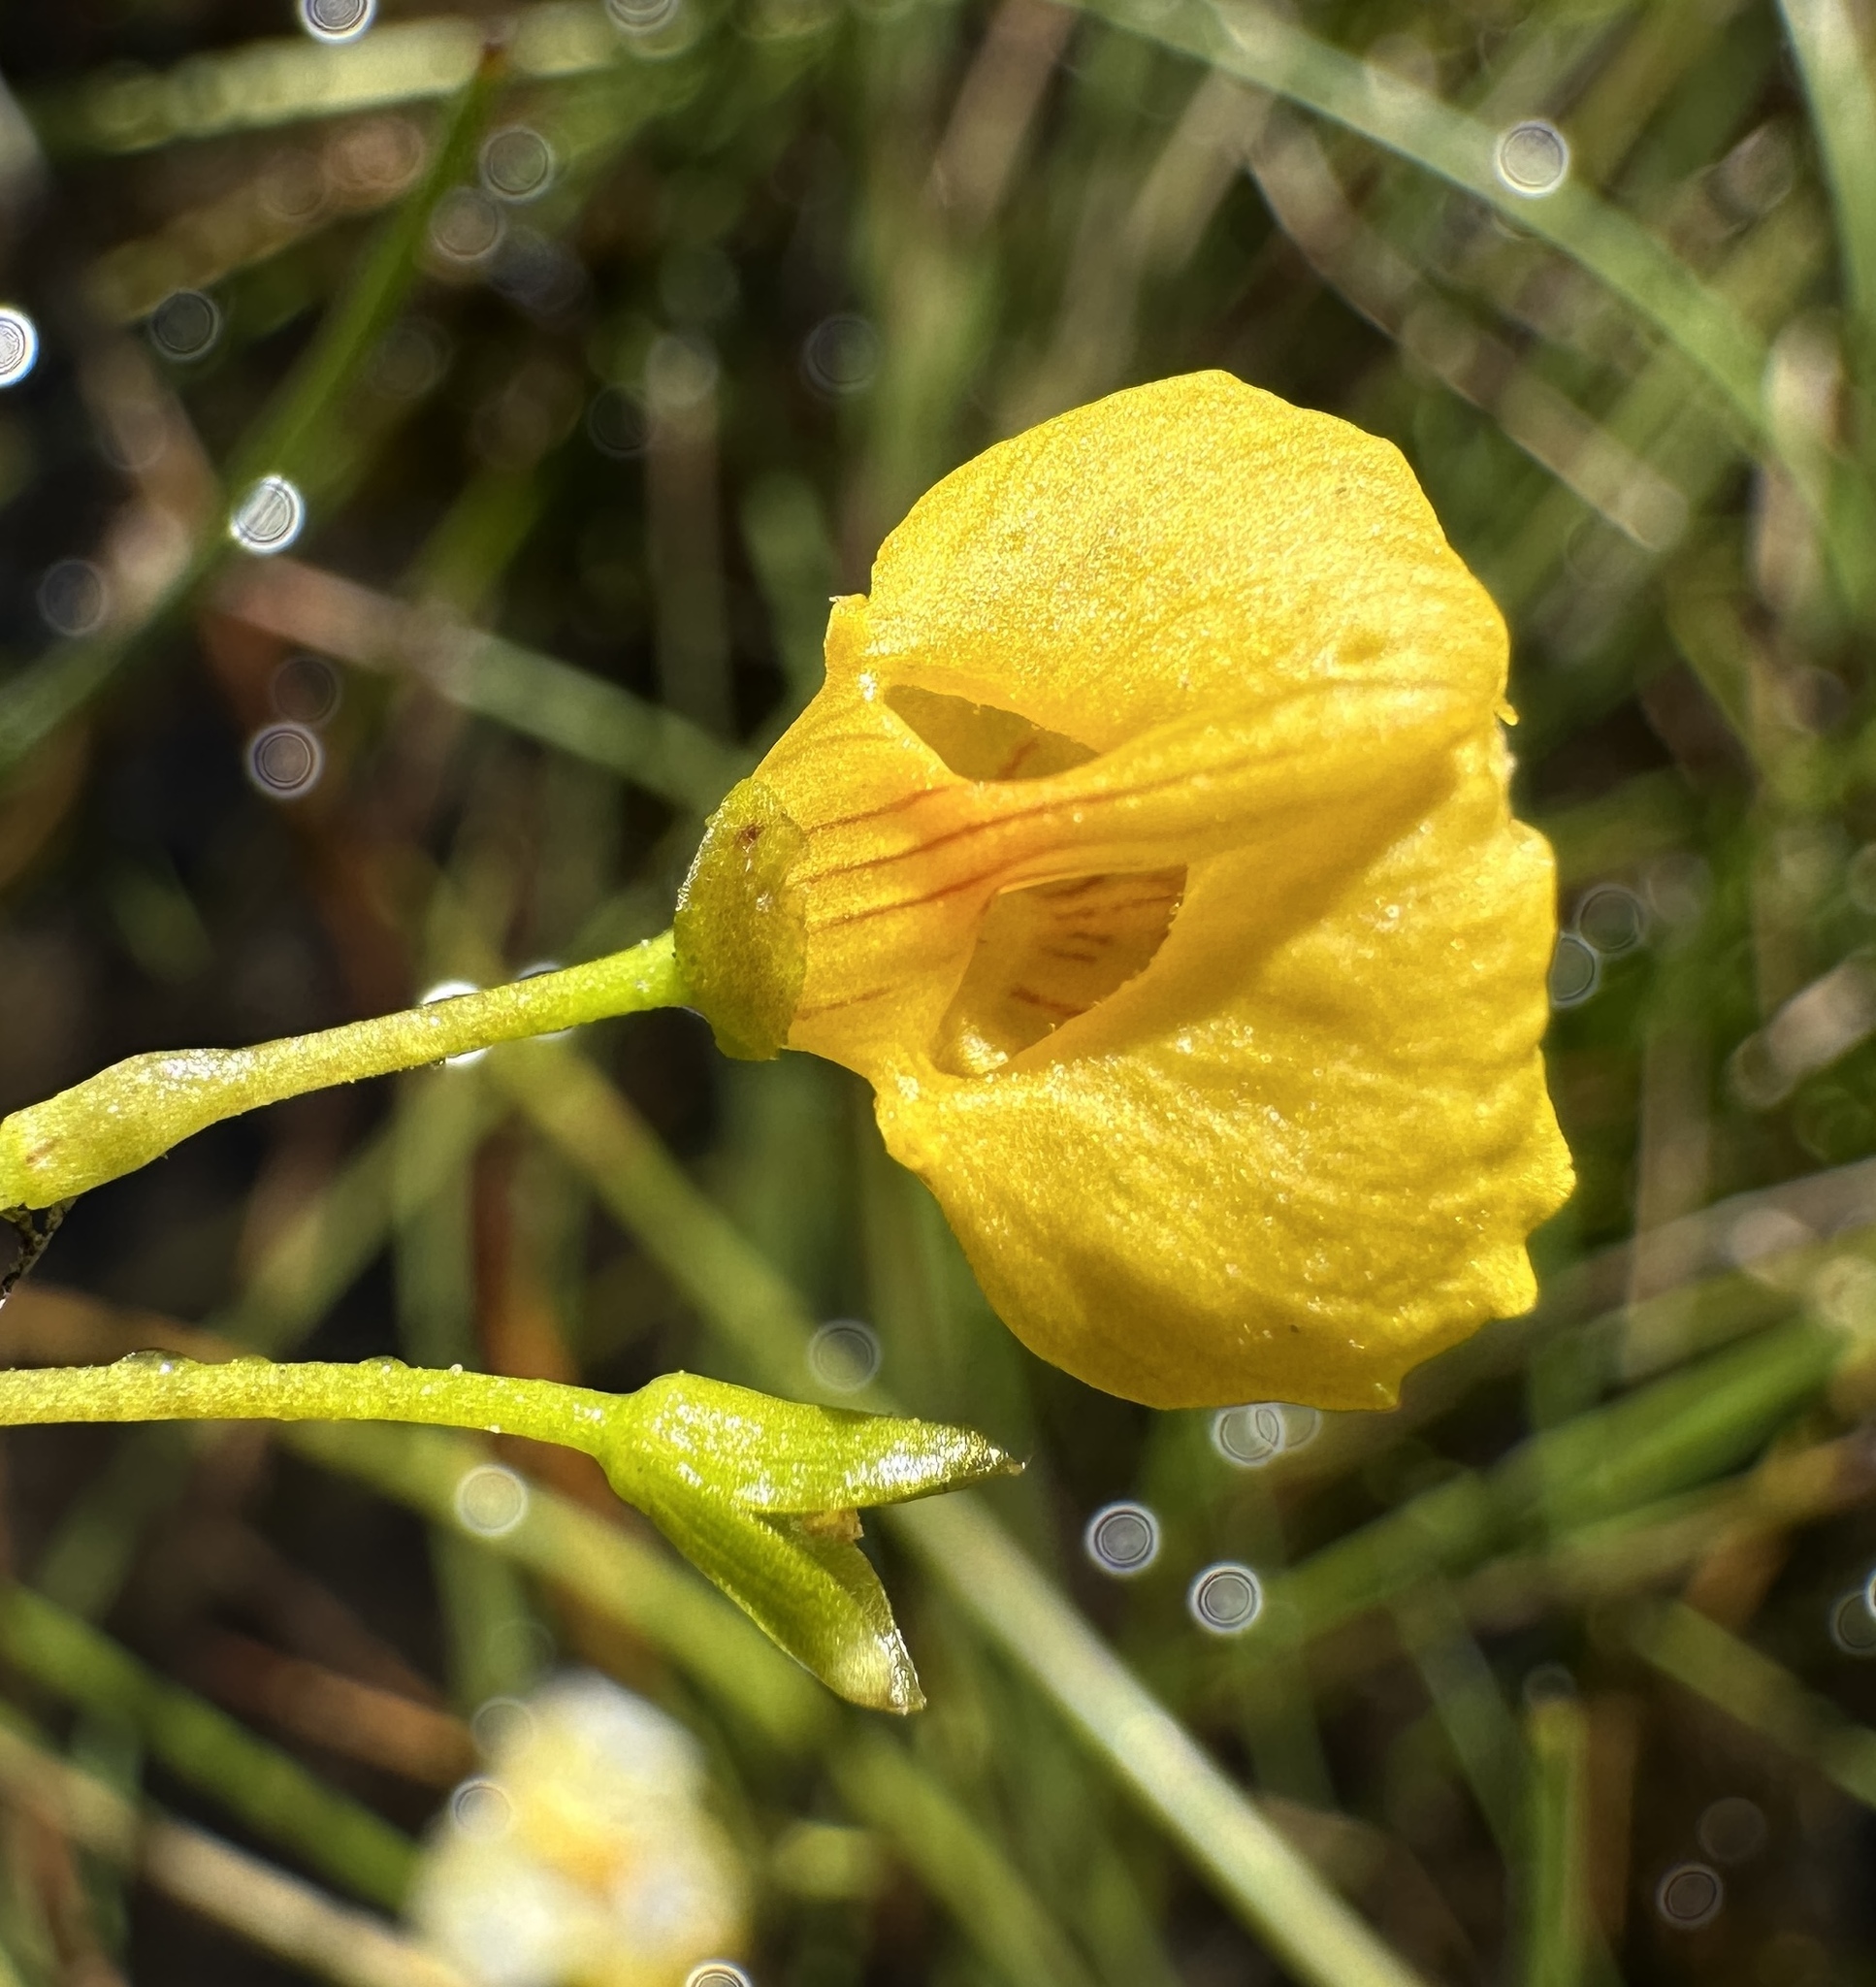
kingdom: Plantae
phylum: Tracheophyta
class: Magnoliopsida
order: Lamiales
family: Lentibulariaceae
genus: Utricularia
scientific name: Utricularia intermedia
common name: Intermediate bladderwort
